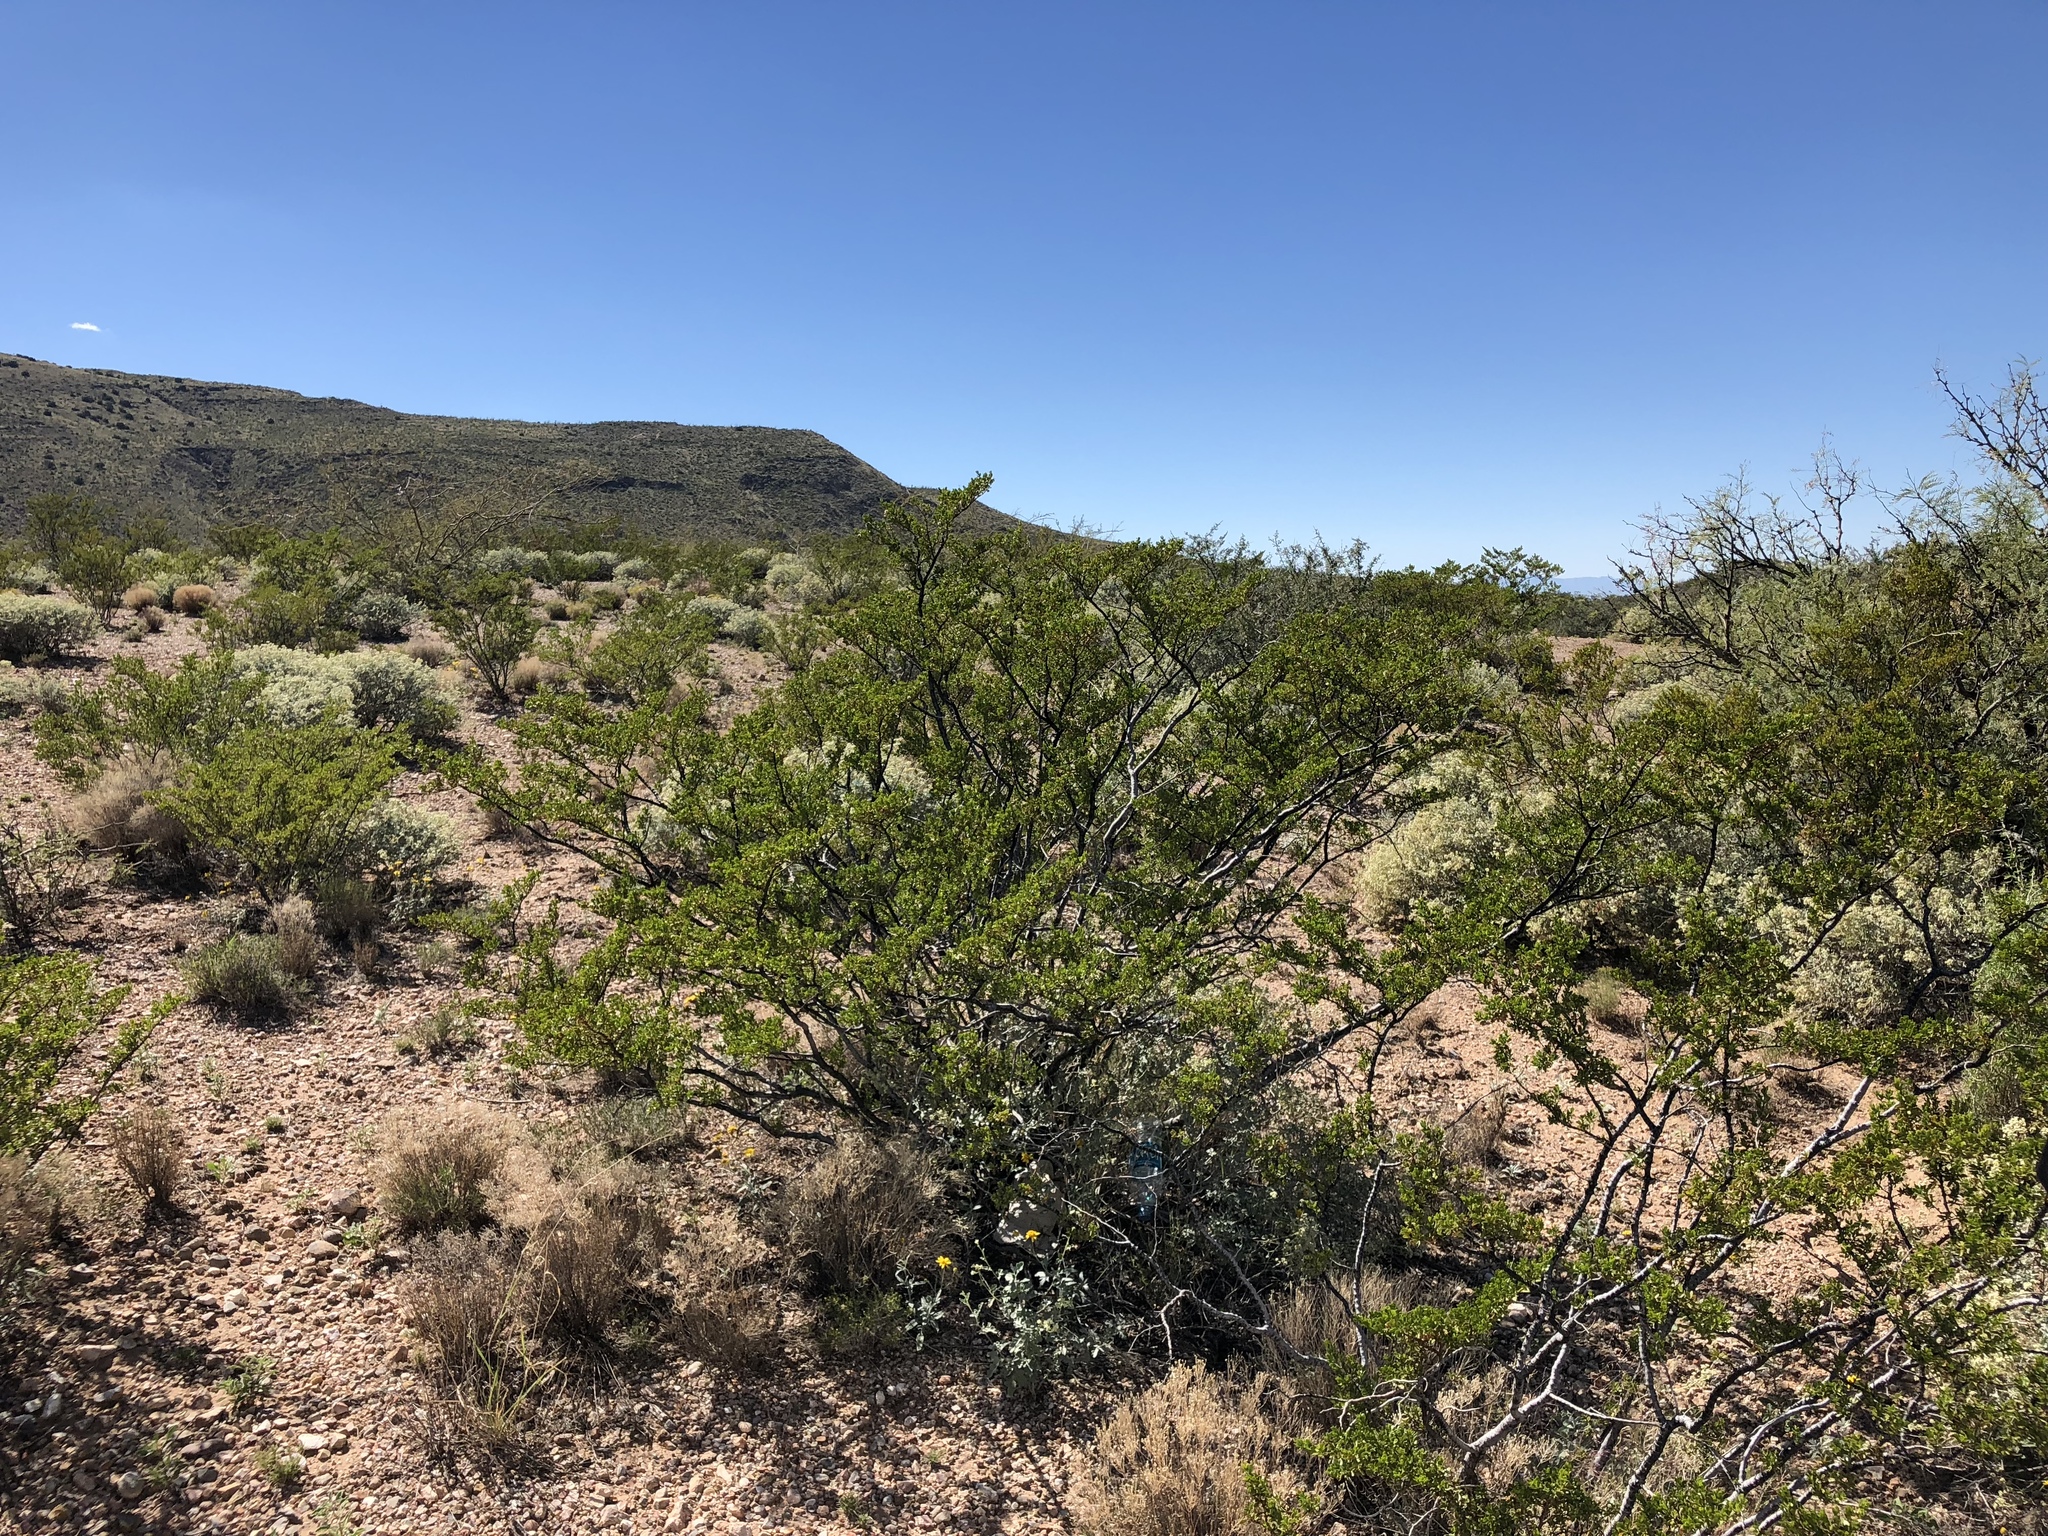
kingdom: Plantae
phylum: Tracheophyta
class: Magnoliopsida
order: Zygophyllales
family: Zygophyllaceae
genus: Larrea
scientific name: Larrea tridentata
